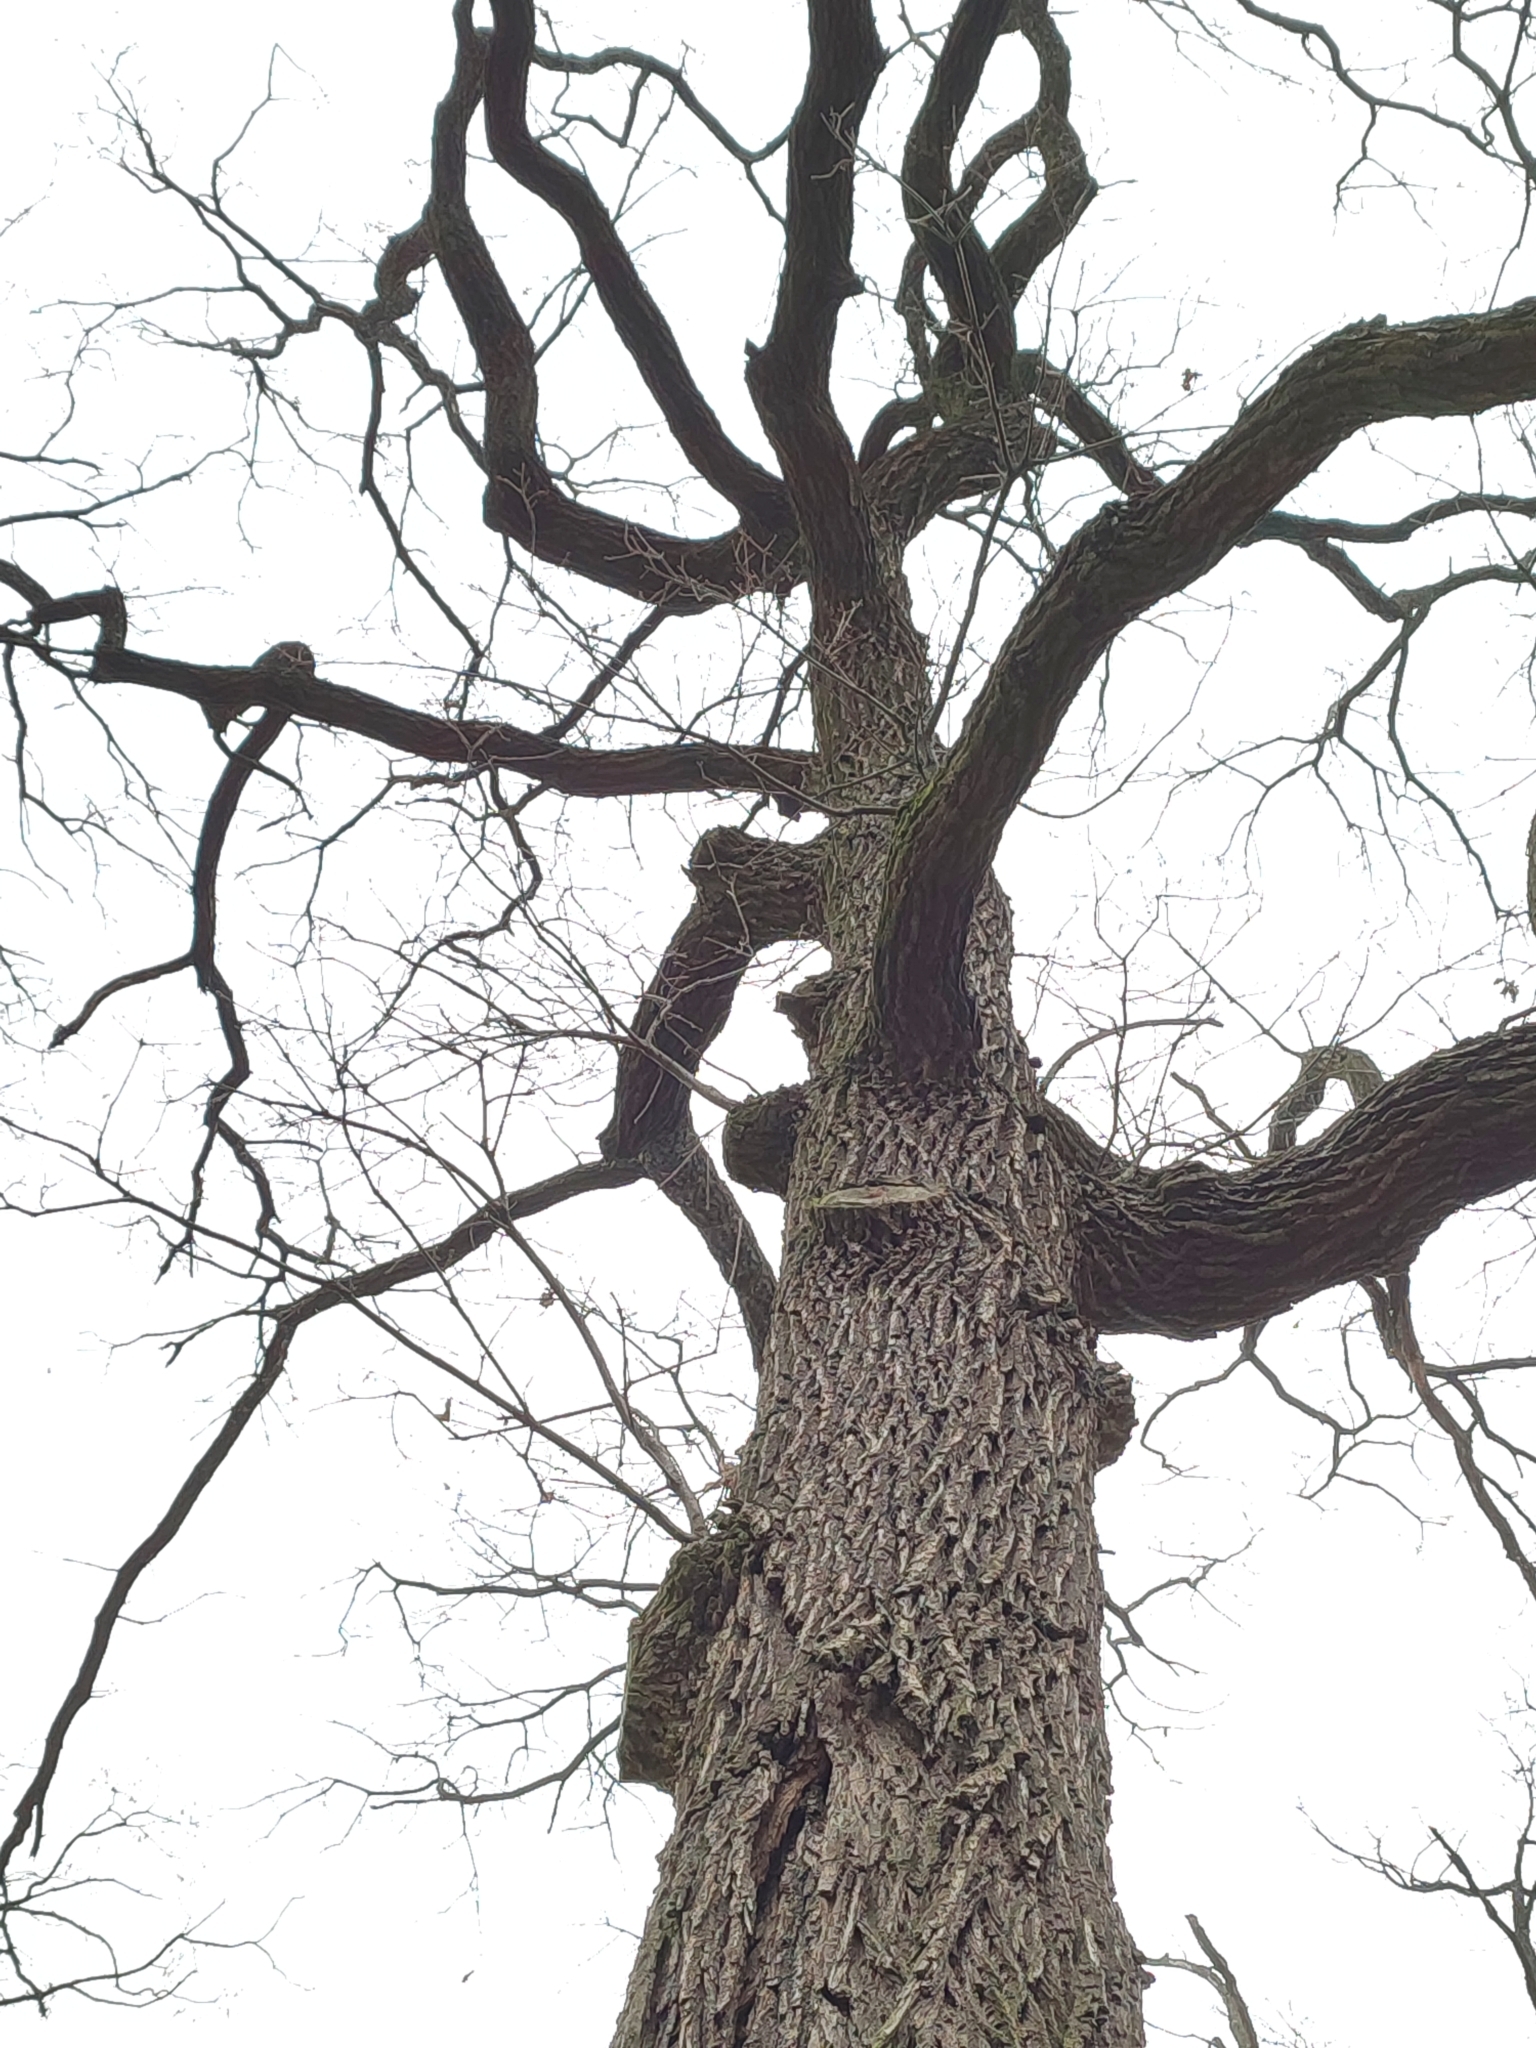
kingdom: Plantae
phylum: Tracheophyta
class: Magnoliopsida
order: Fagales
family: Fagaceae
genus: Quercus
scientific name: Quercus robur
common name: Pedunculate oak
